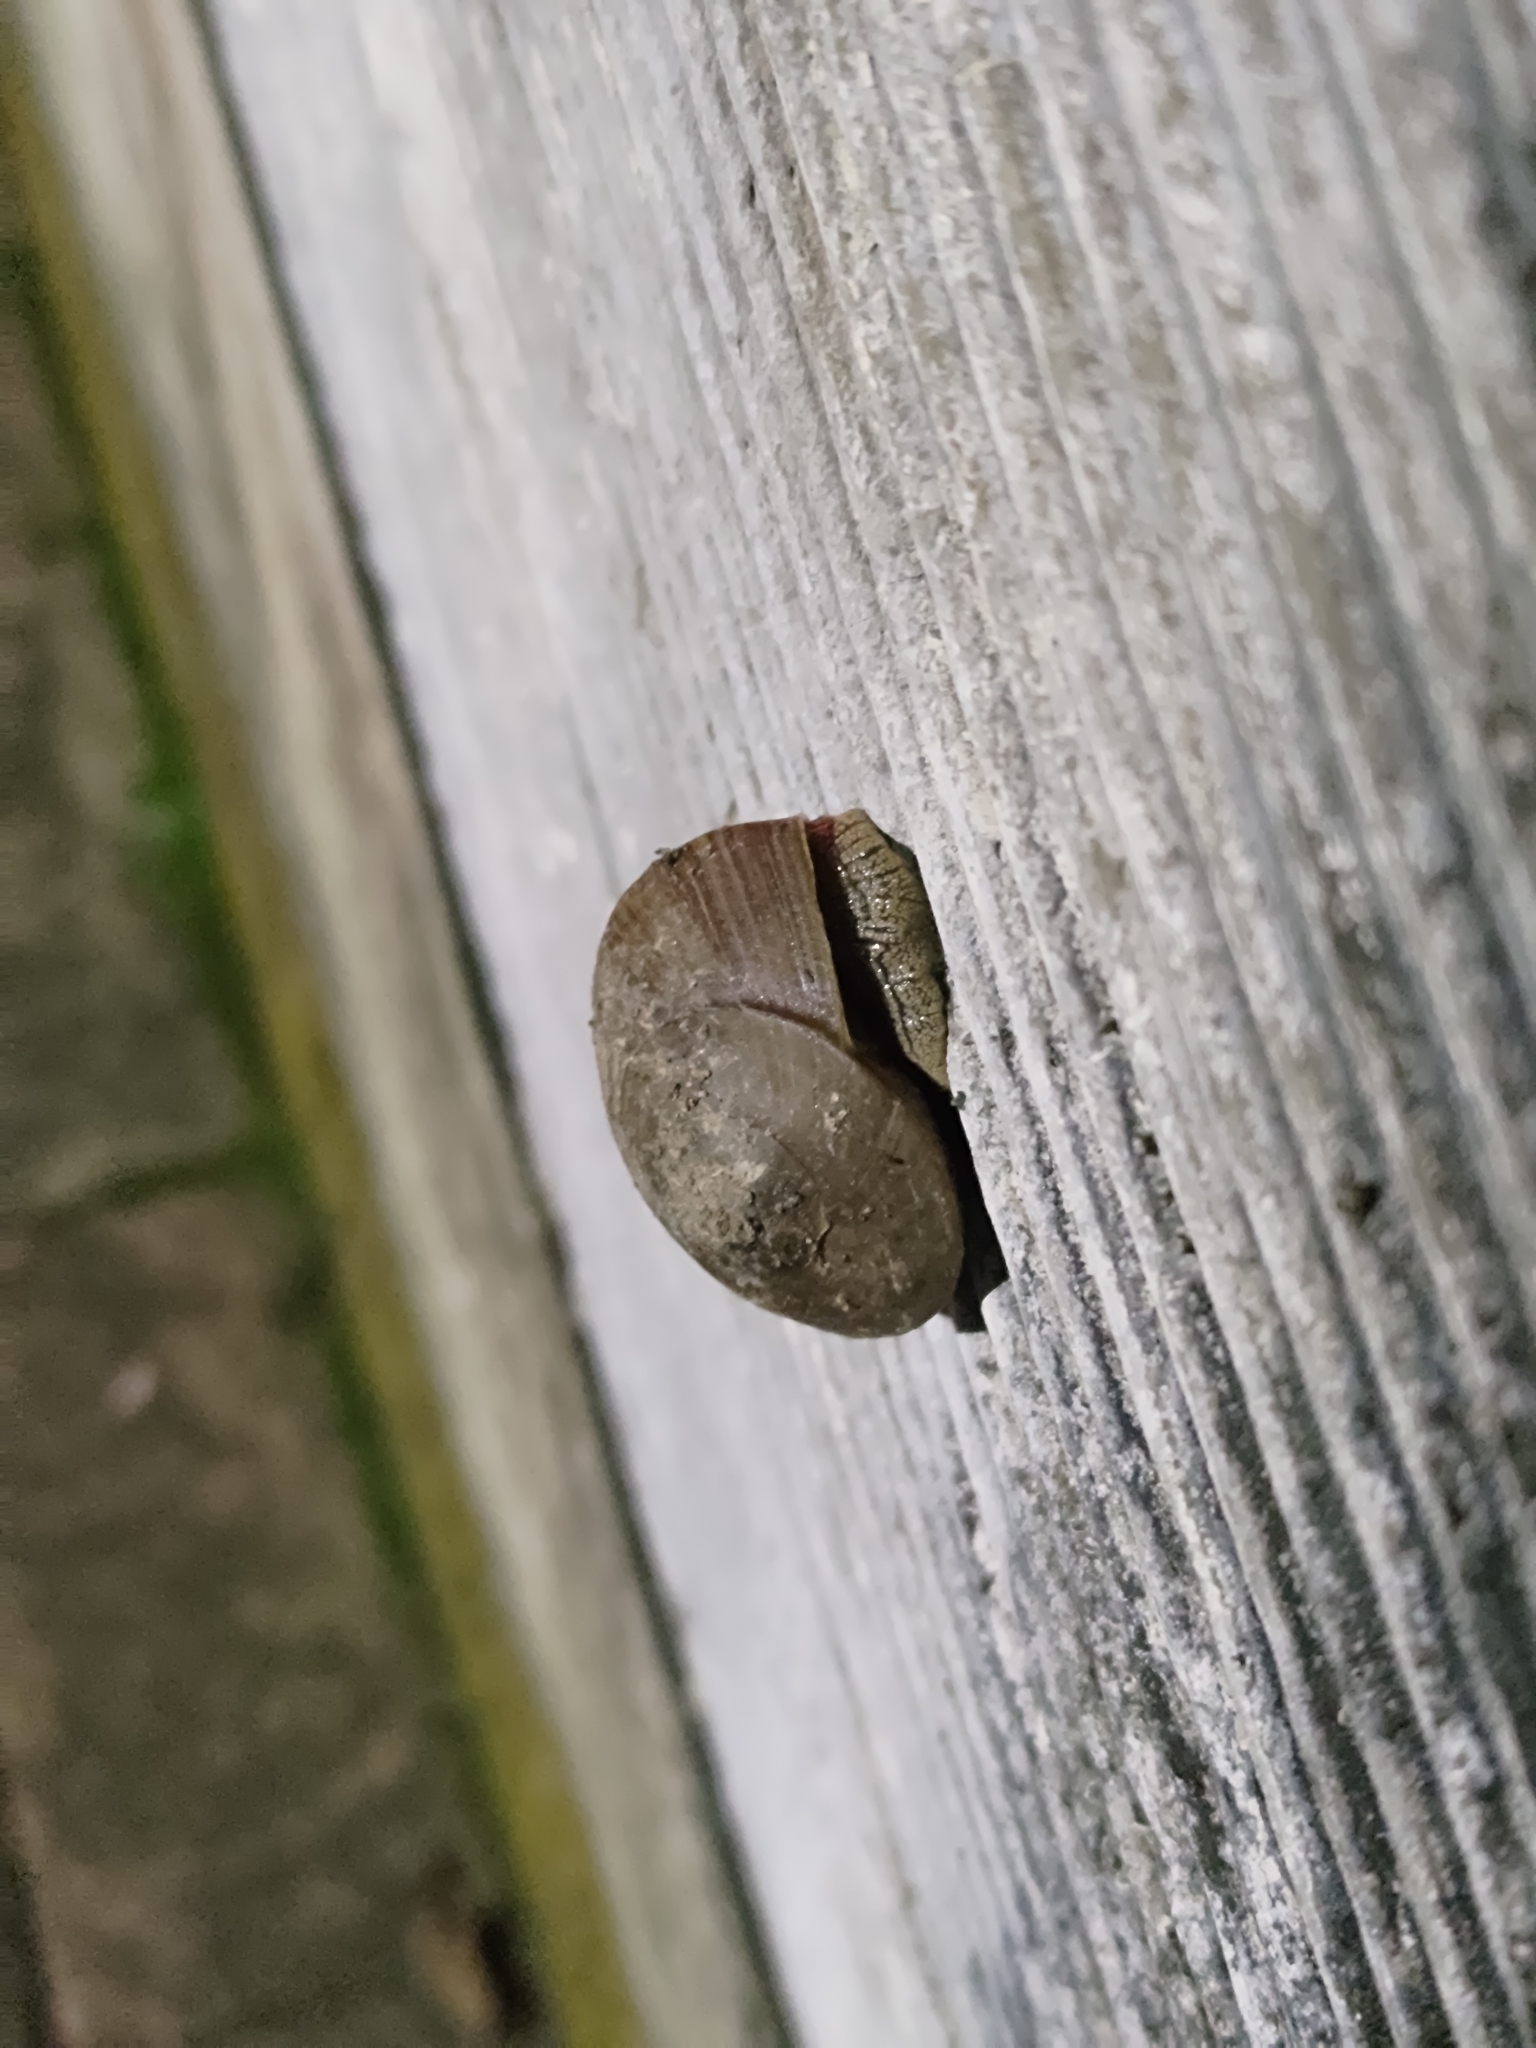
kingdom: Animalia
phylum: Mollusca
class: Gastropoda
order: Stylommatophora
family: Camaenidae
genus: Nesiohelix
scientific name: Nesiohelix swinhoei
